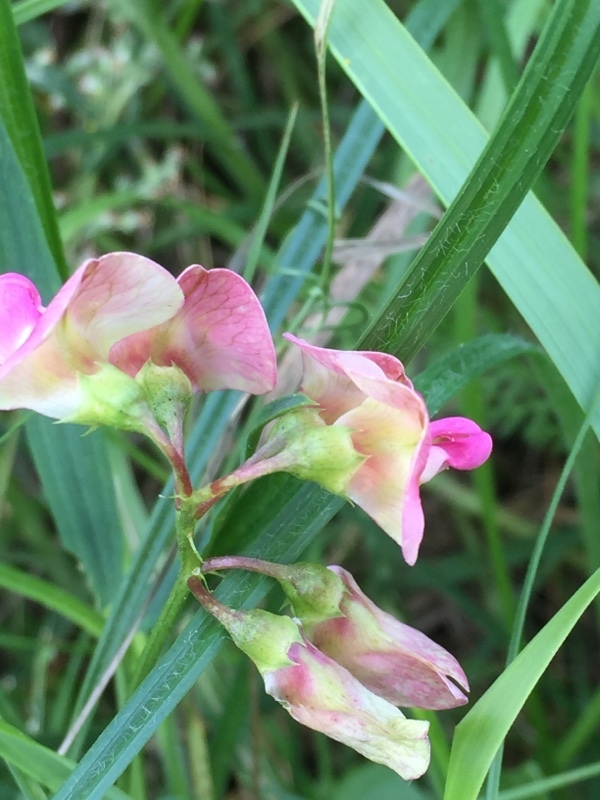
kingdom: Plantae
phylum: Tracheophyta
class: Magnoliopsida
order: Fabales
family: Fabaceae
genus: Lathyrus
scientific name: Lathyrus sylvestris
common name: Flat pea
